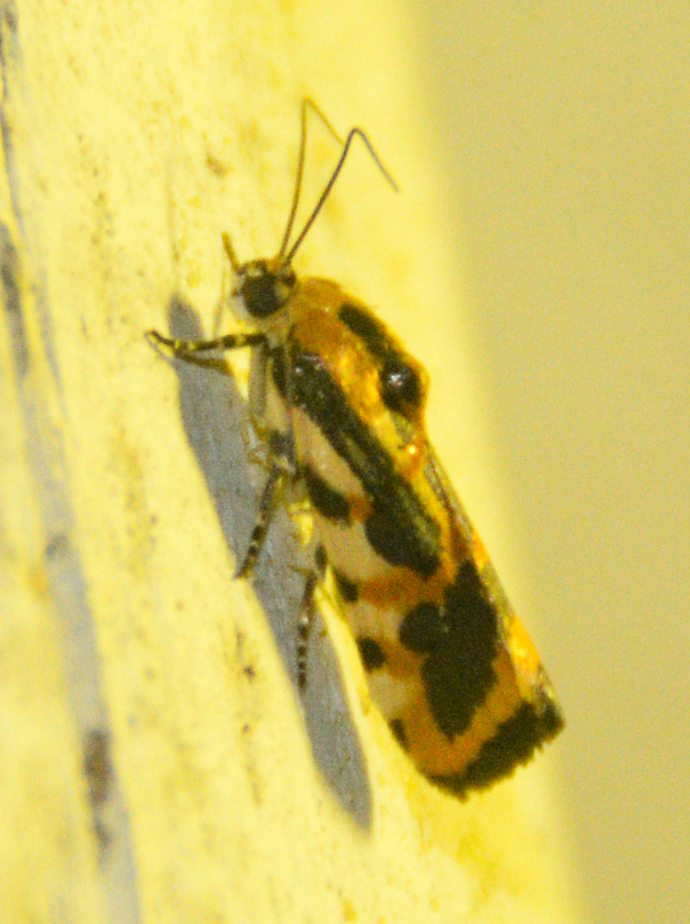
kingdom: Animalia
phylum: Arthropoda
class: Insecta
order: Lepidoptera
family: Noctuidae
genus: Acontia
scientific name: Acontia leo
